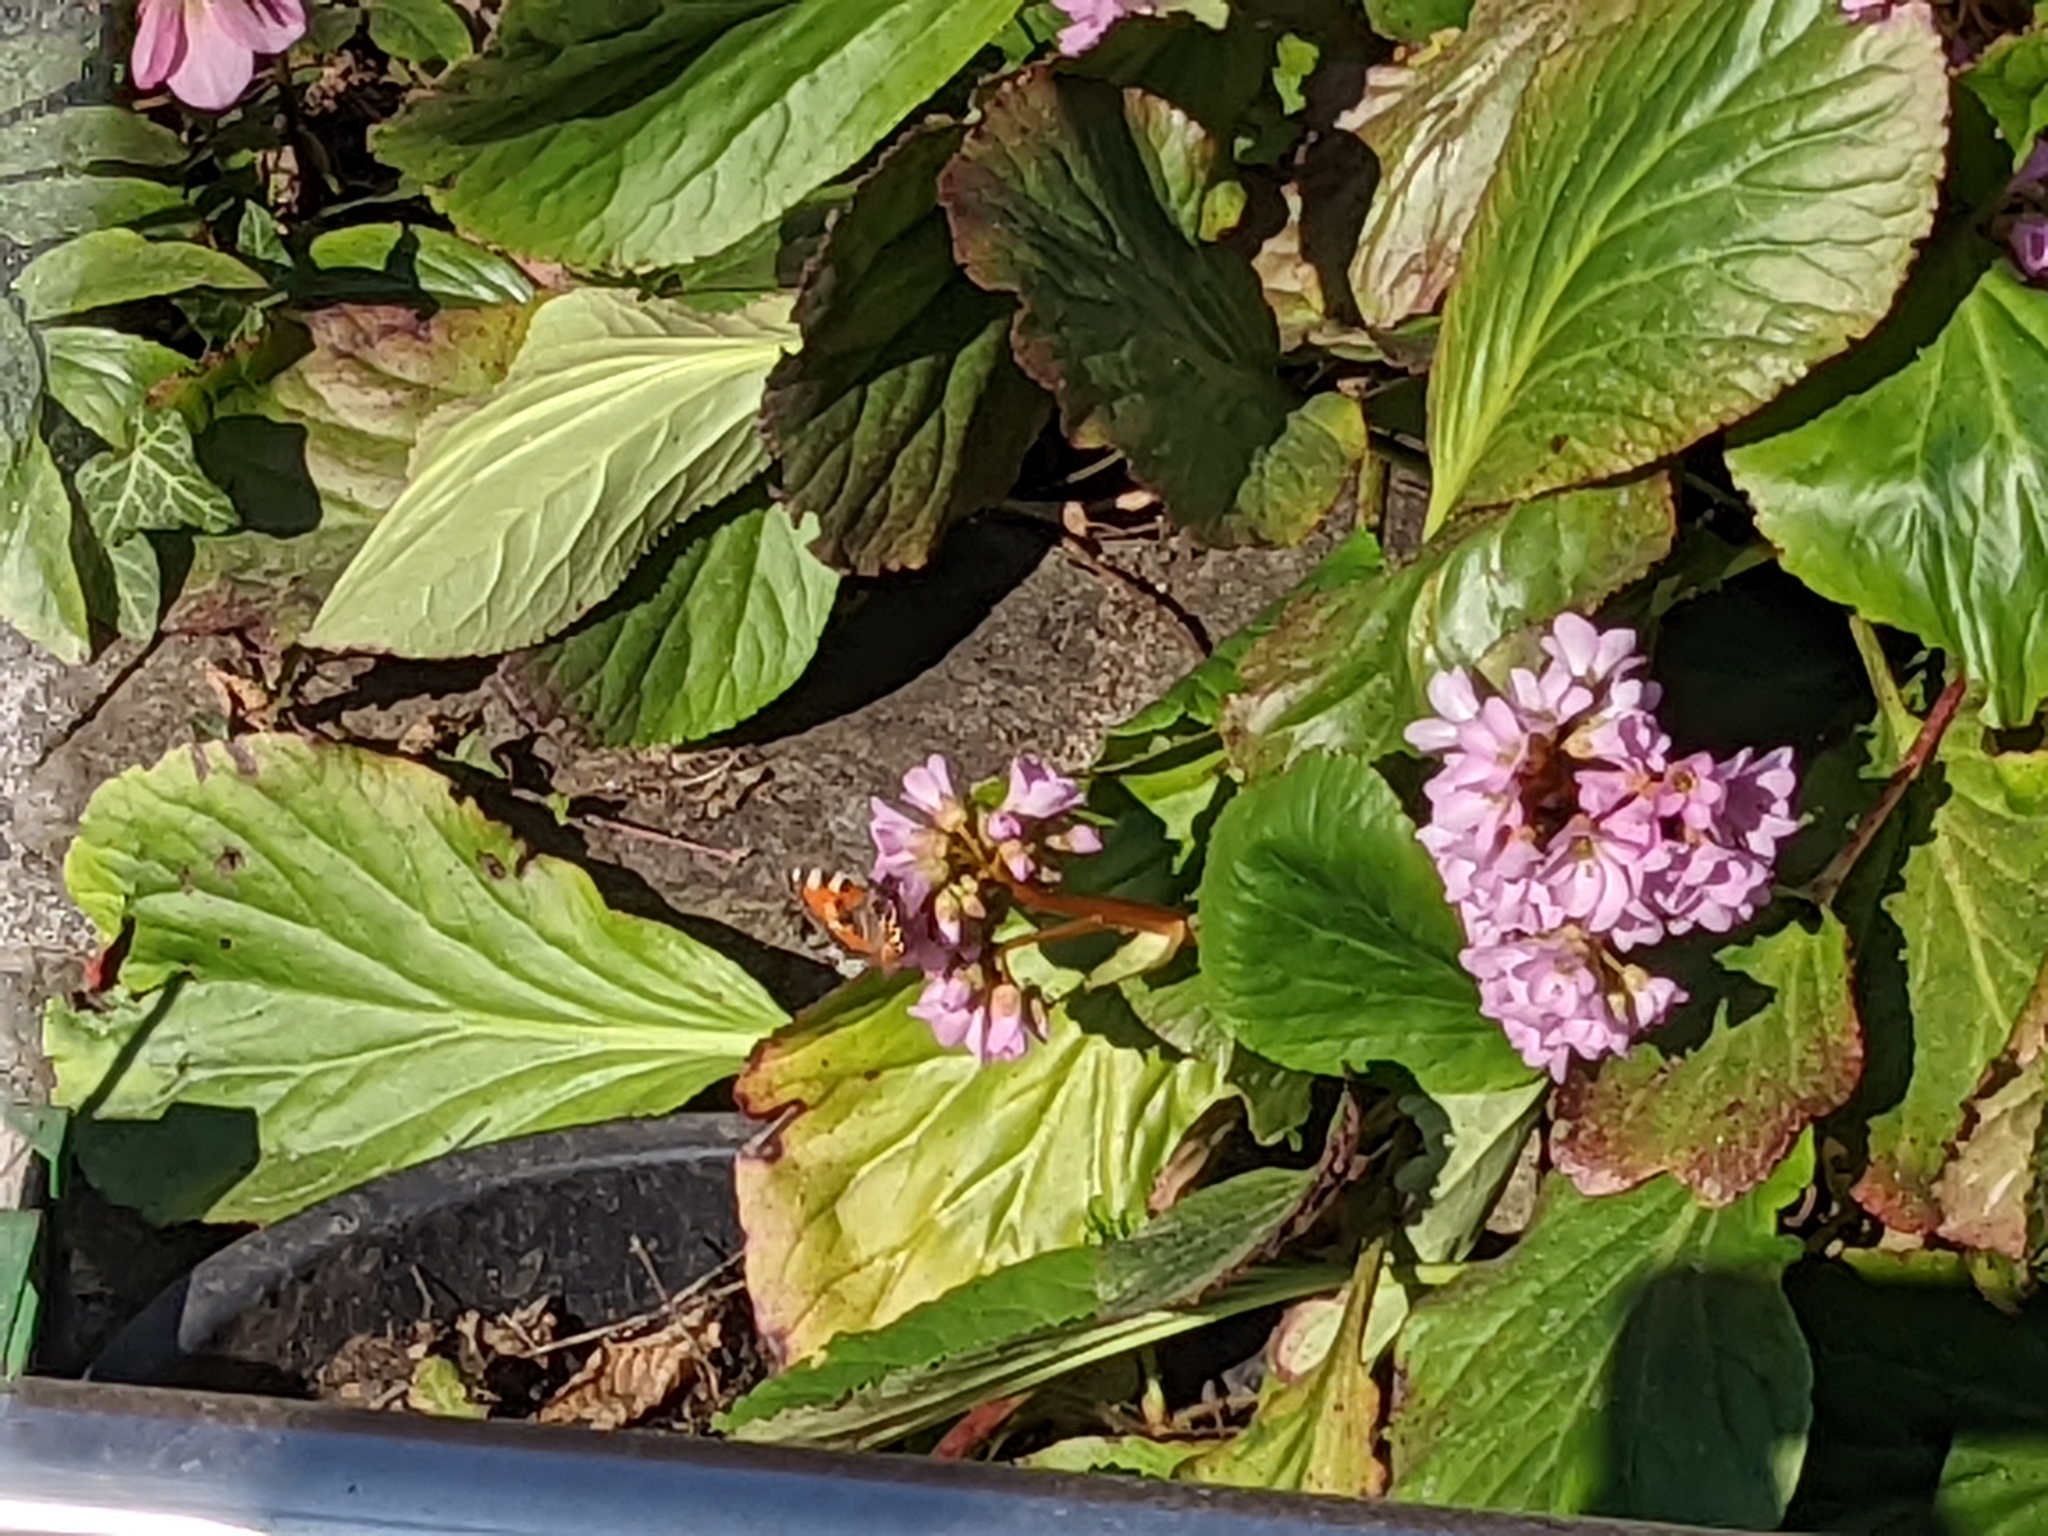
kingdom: Animalia
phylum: Arthropoda
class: Insecta
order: Lepidoptera
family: Nymphalidae
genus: Aglais
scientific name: Aglais urticae
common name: Small tortoiseshell
